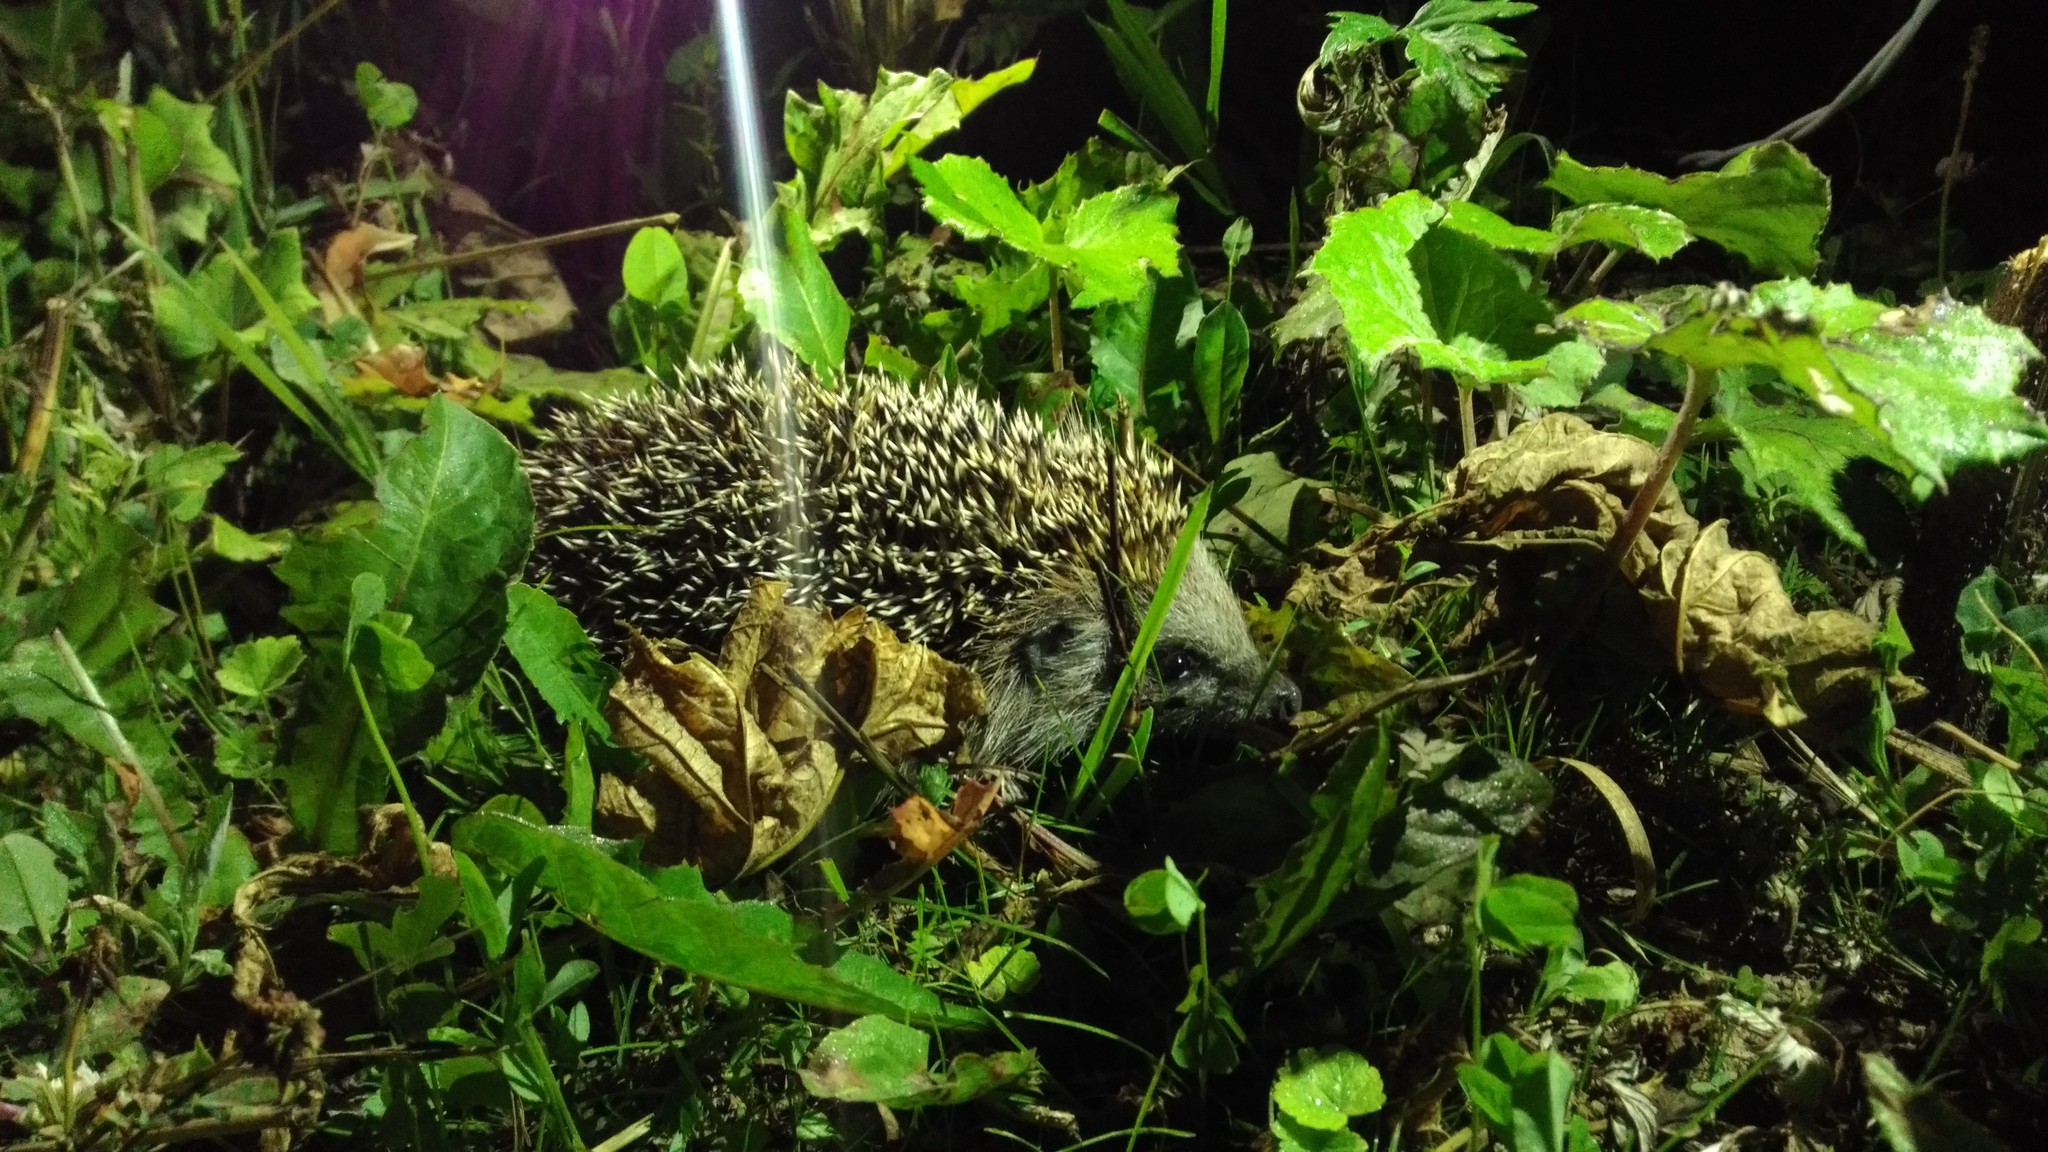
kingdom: Animalia
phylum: Chordata
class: Mammalia
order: Erinaceomorpha
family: Erinaceidae
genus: Erinaceus
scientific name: Erinaceus europaeus
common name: West european hedgehog
